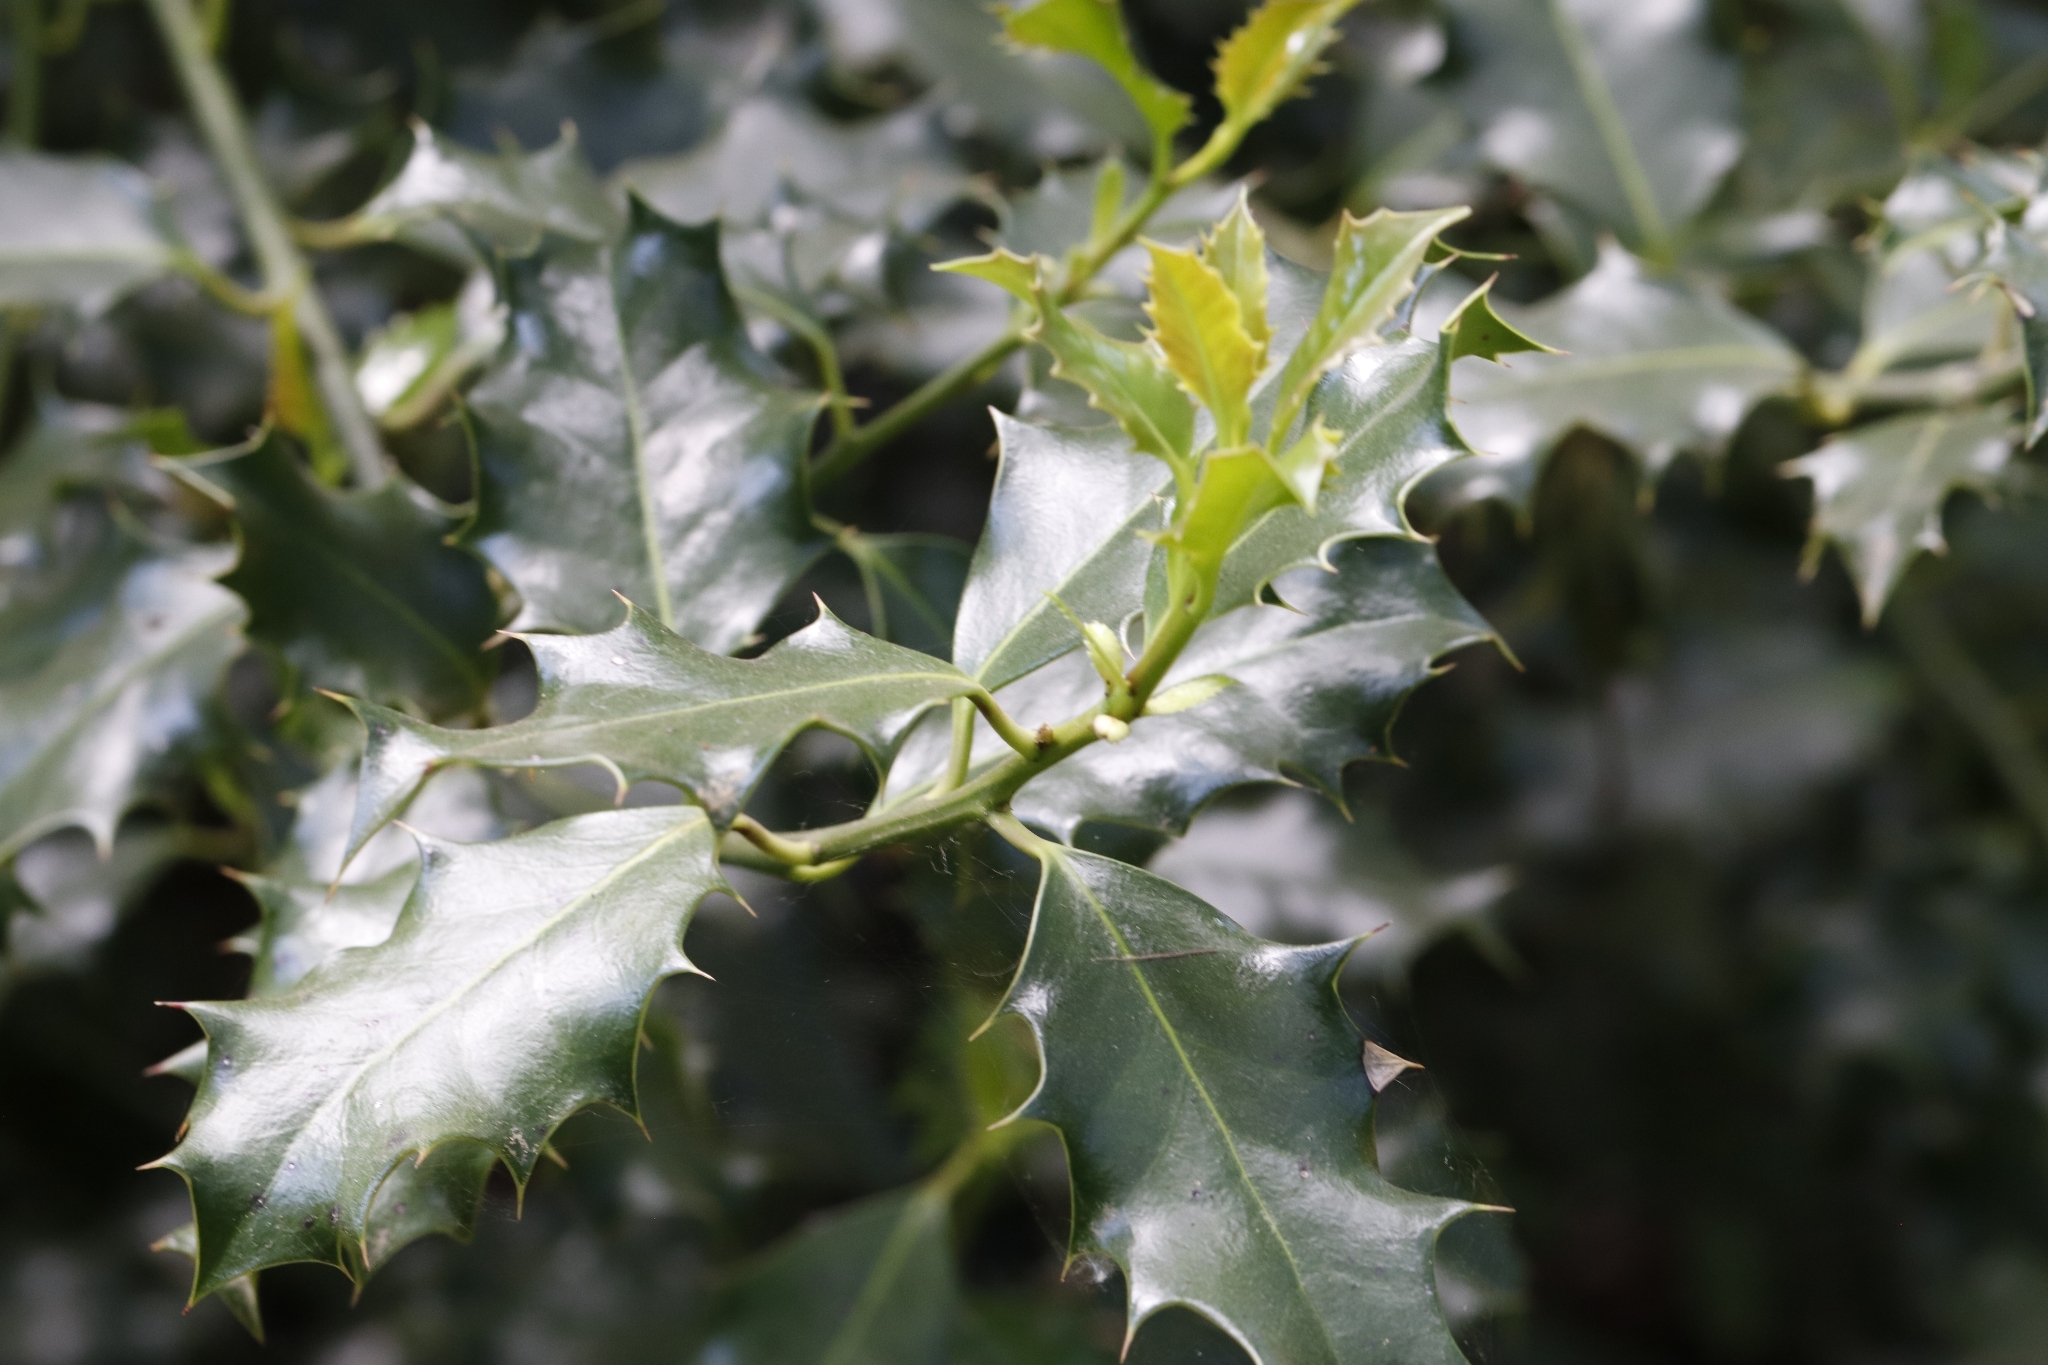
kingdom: Plantae
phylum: Tracheophyta
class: Magnoliopsida
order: Aquifoliales
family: Aquifoliaceae
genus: Ilex
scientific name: Ilex aquifolium
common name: English holly
